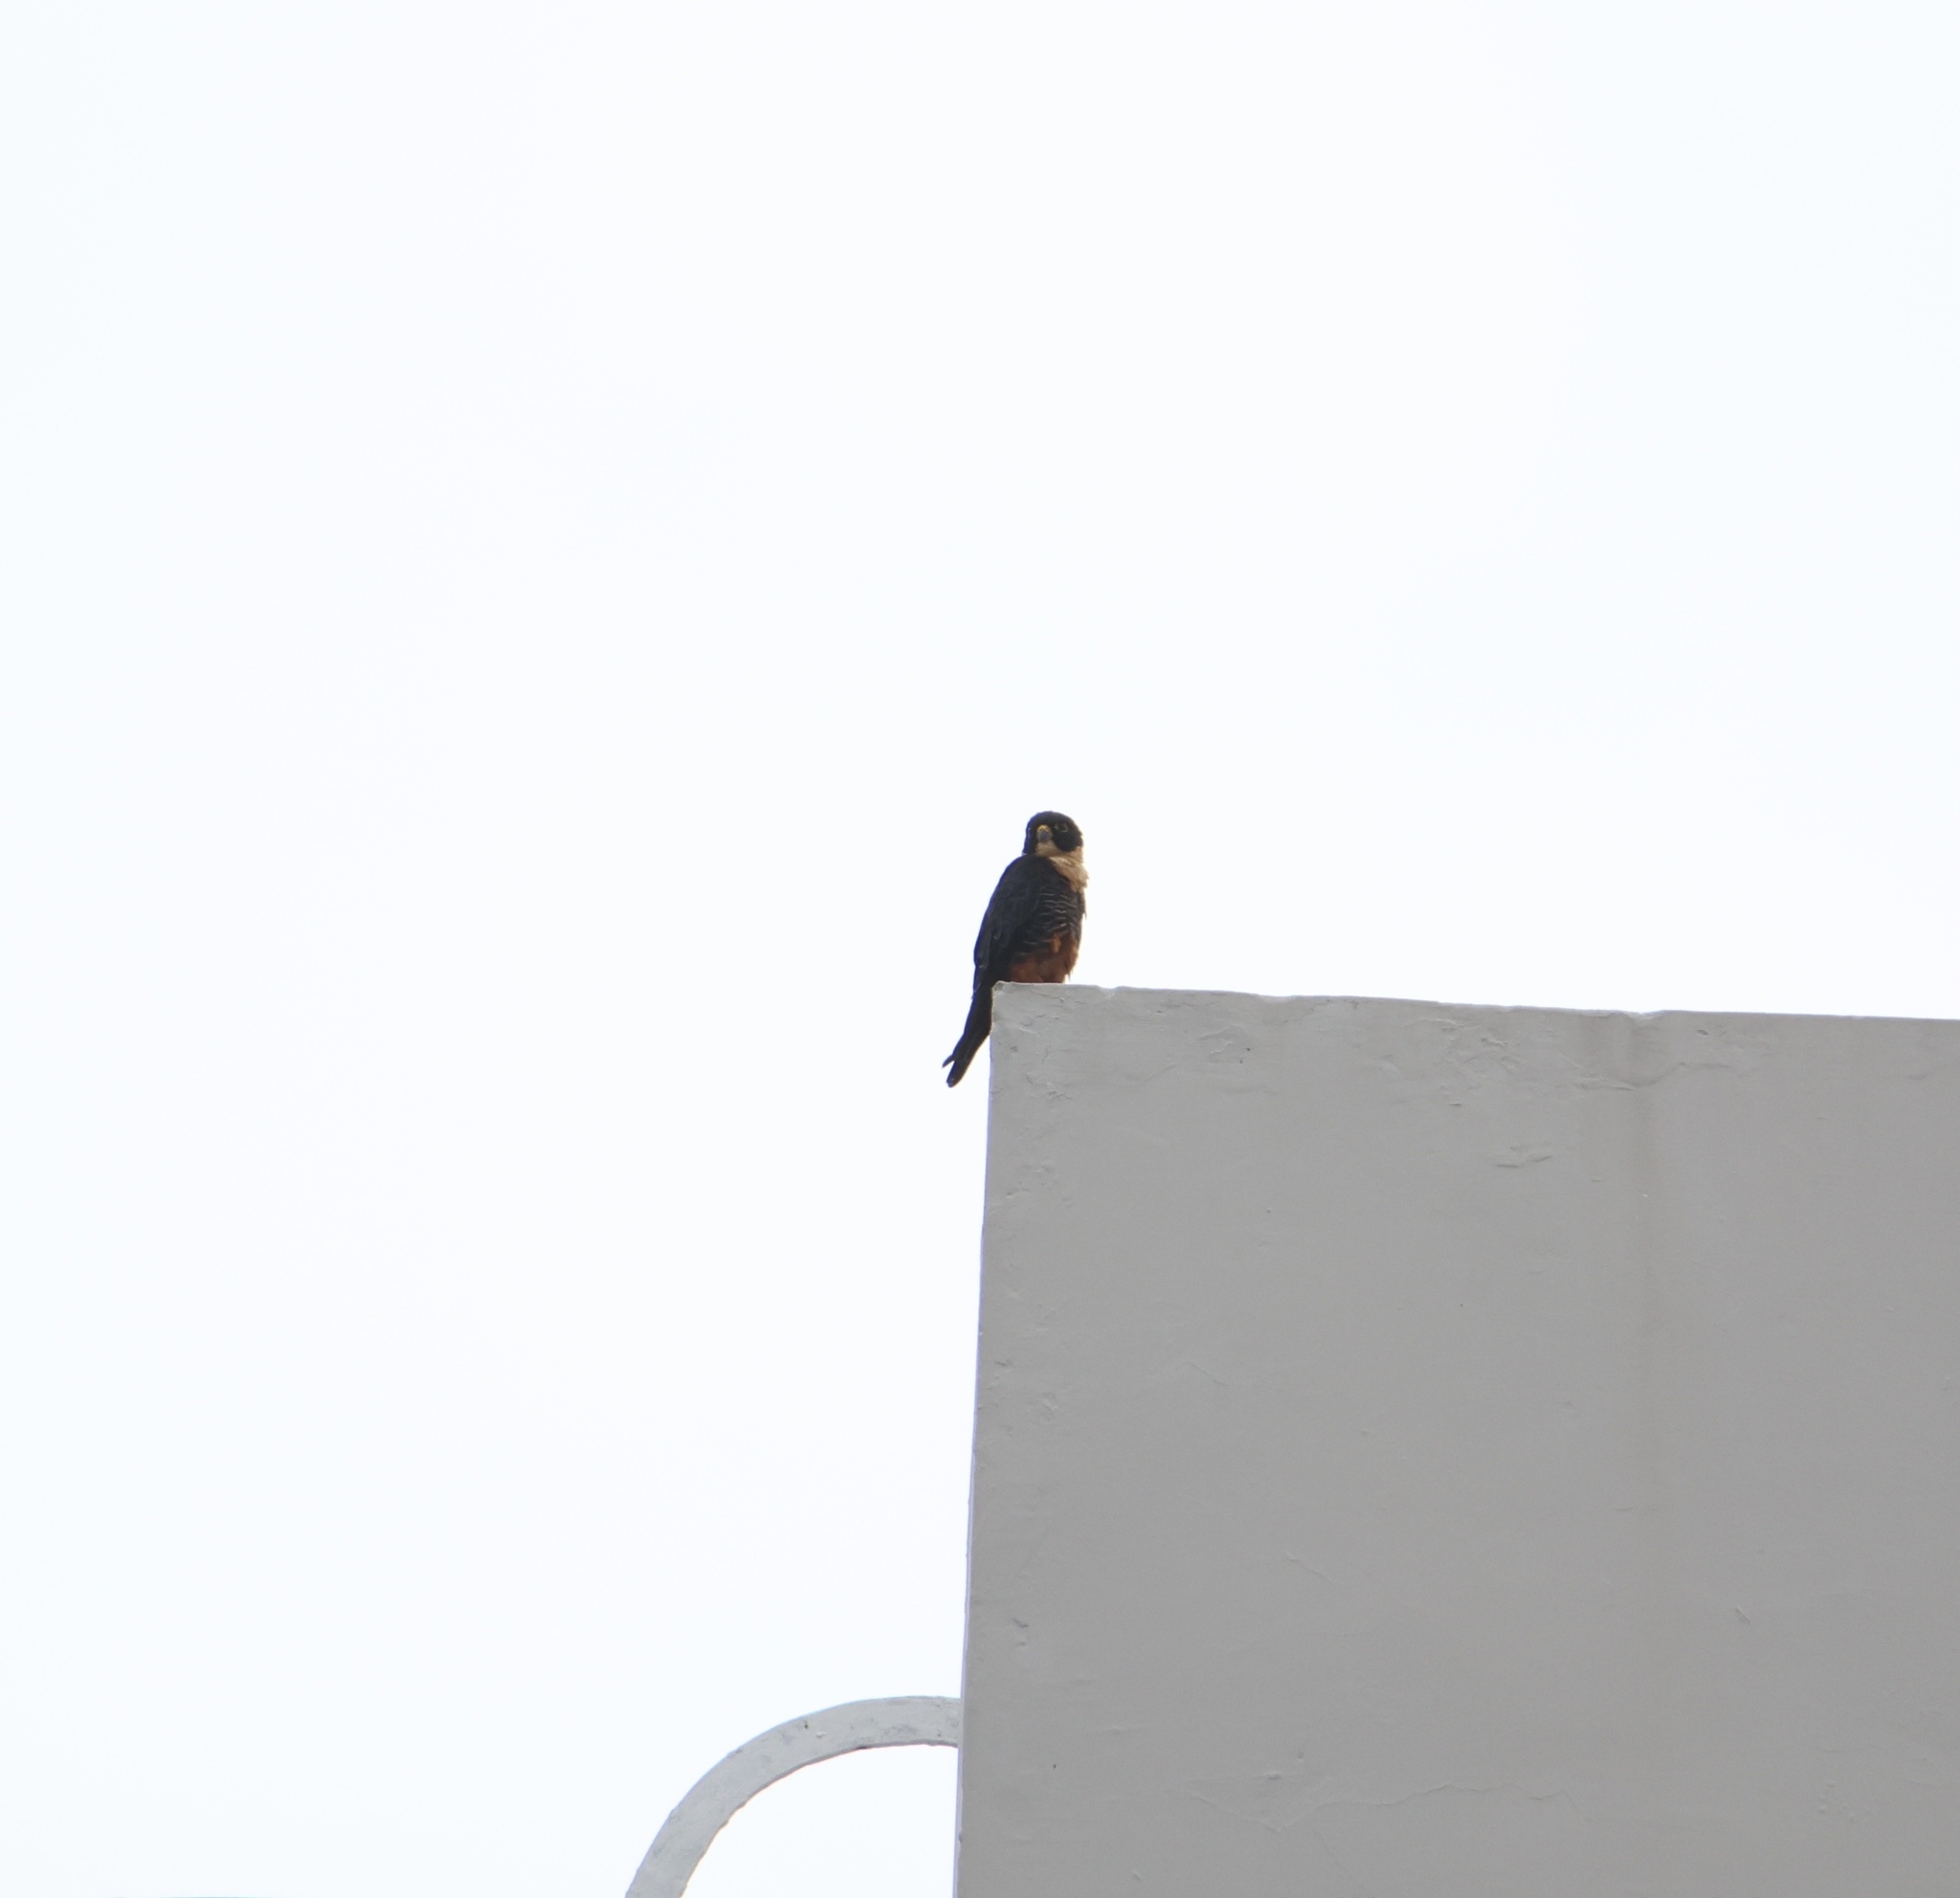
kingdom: Animalia
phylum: Chordata
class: Aves
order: Falconiformes
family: Falconidae
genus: Falco
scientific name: Falco rufigularis
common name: Bat falcon
